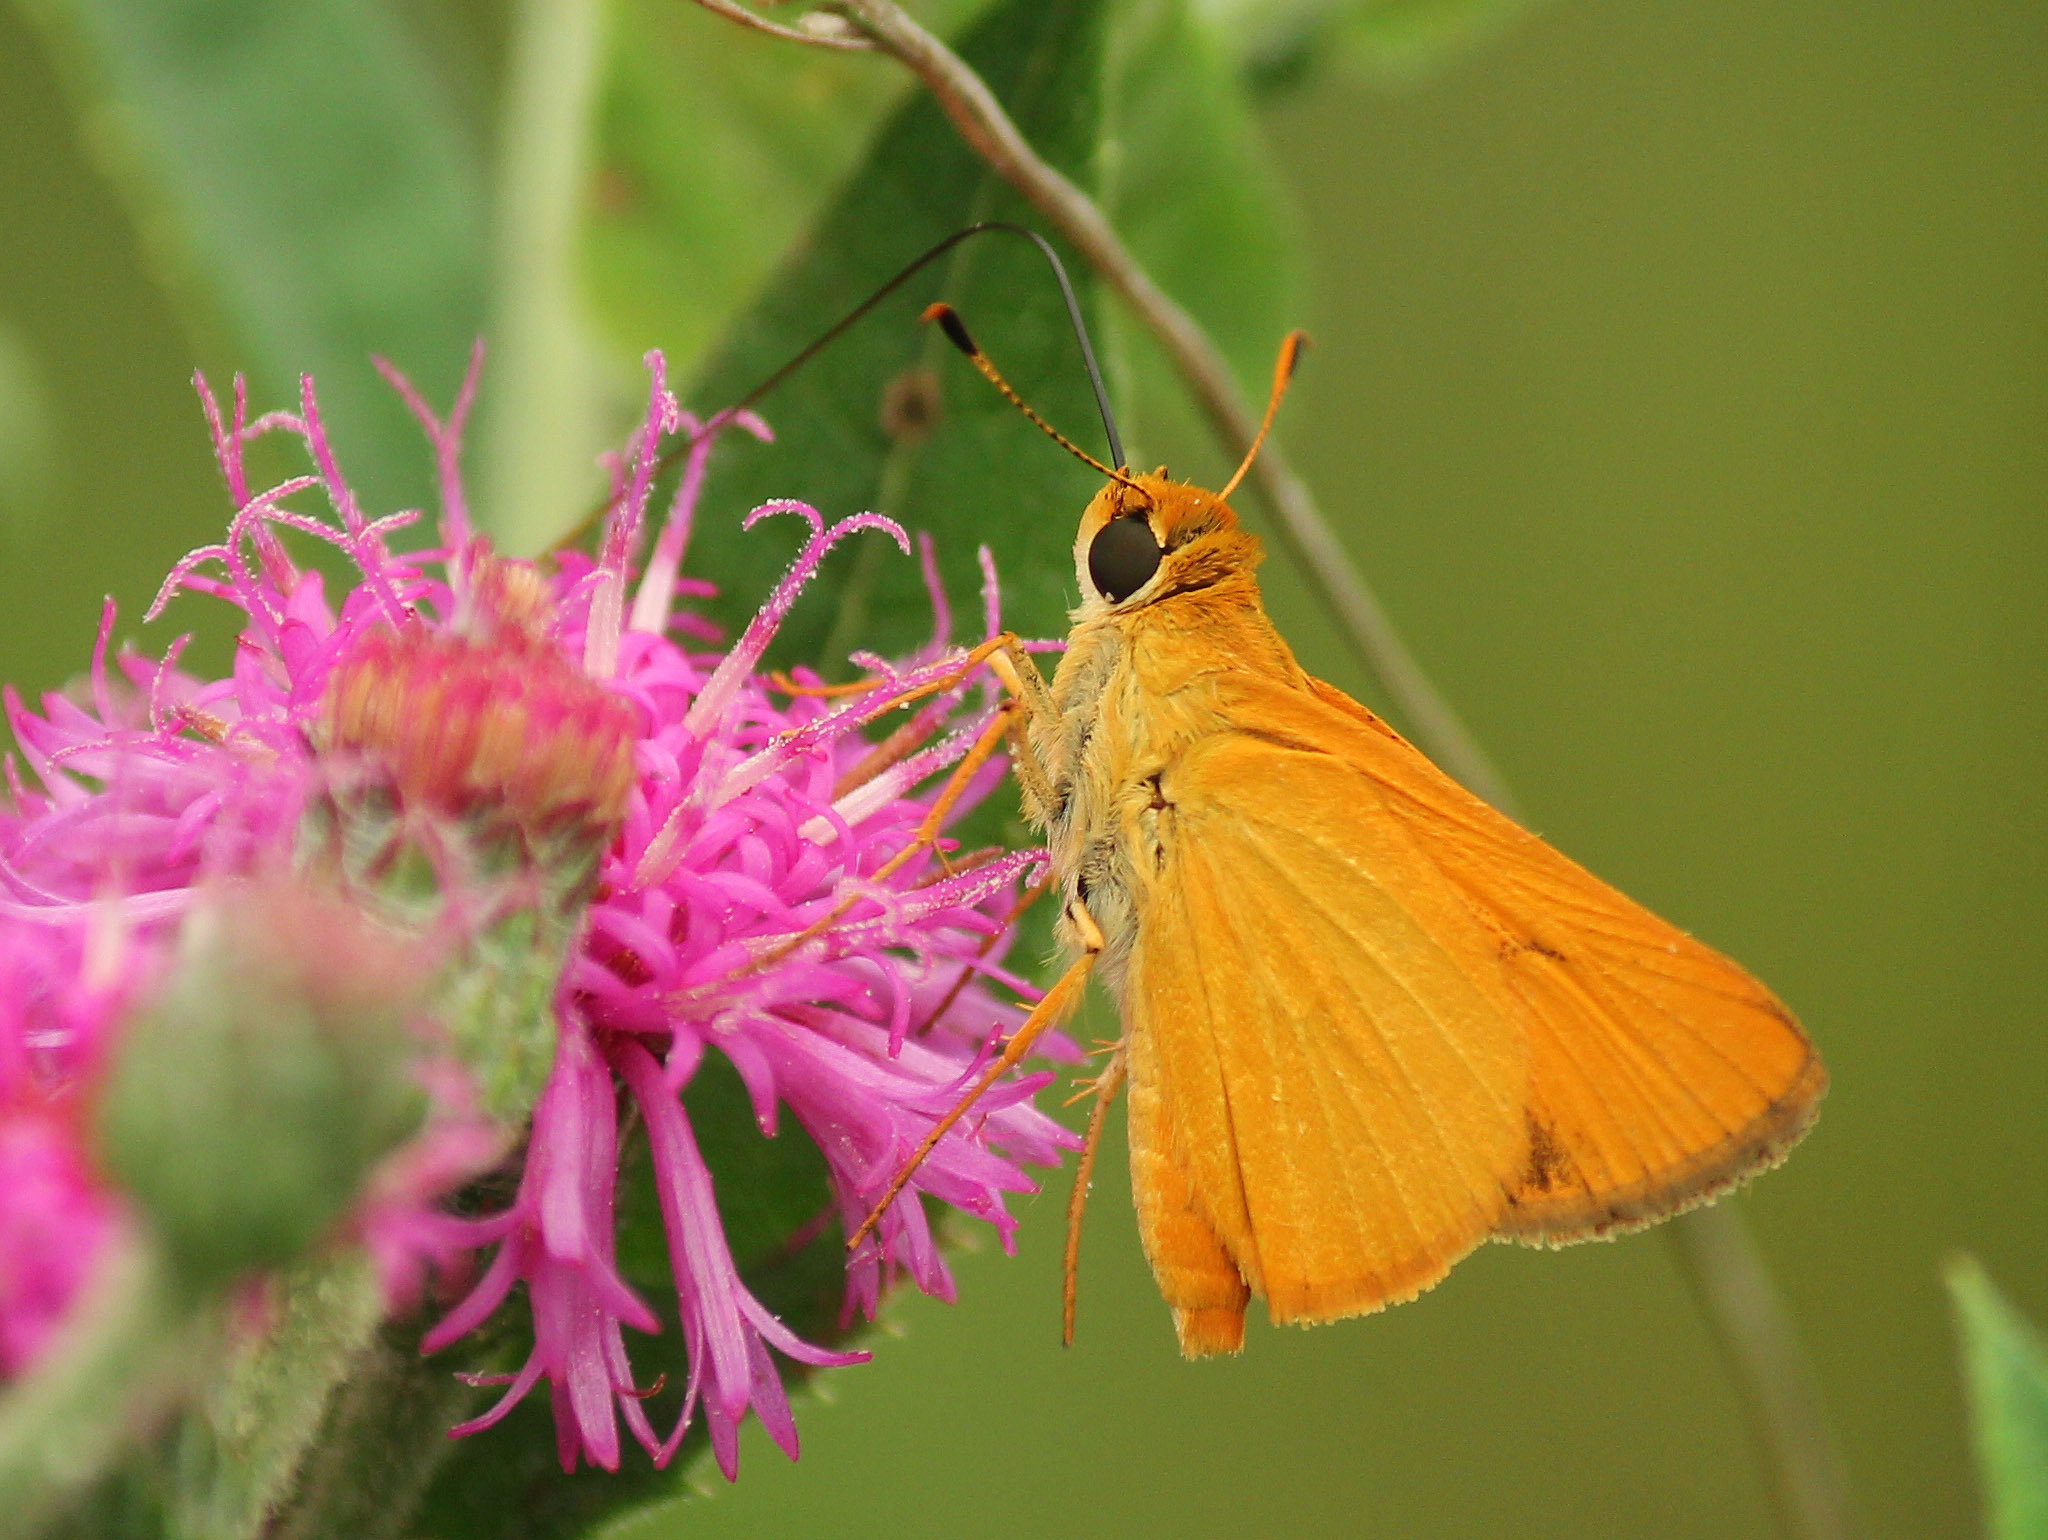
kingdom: Animalia
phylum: Arthropoda
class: Insecta
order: Lepidoptera
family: Hesperiidae
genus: Atrytone
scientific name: Atrytone delaware
